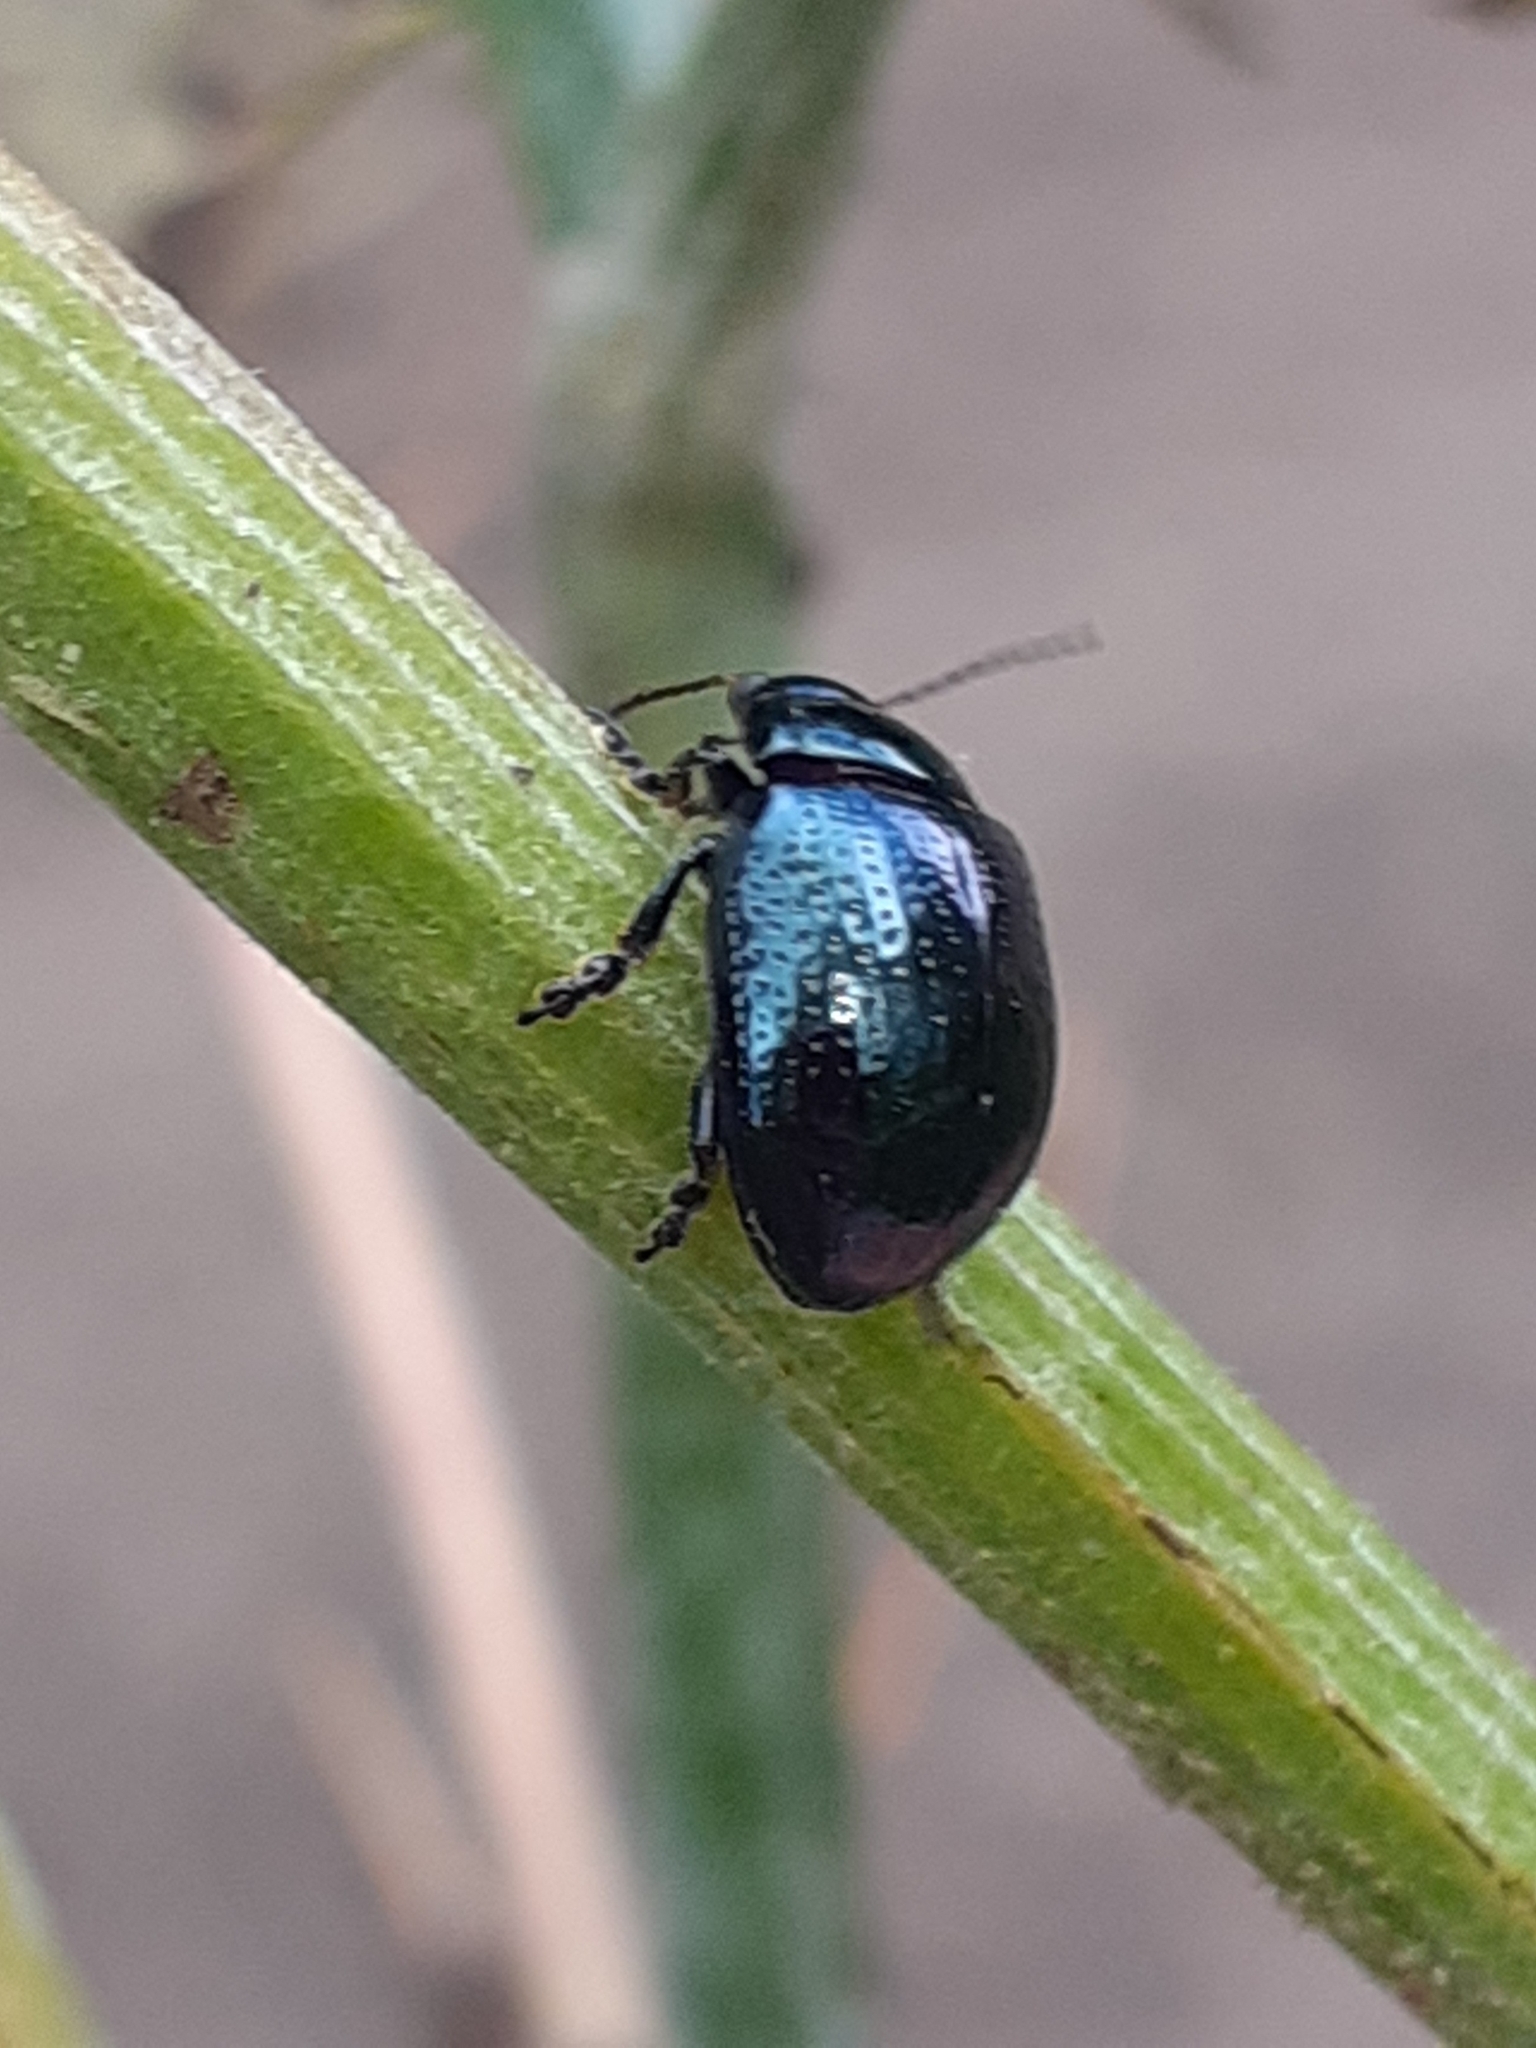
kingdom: Animalia
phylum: Arthropoda
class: Insecta
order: Coleoptera
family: Chrysomelidae
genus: Chrysolina
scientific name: Chrysolina oricalcia
